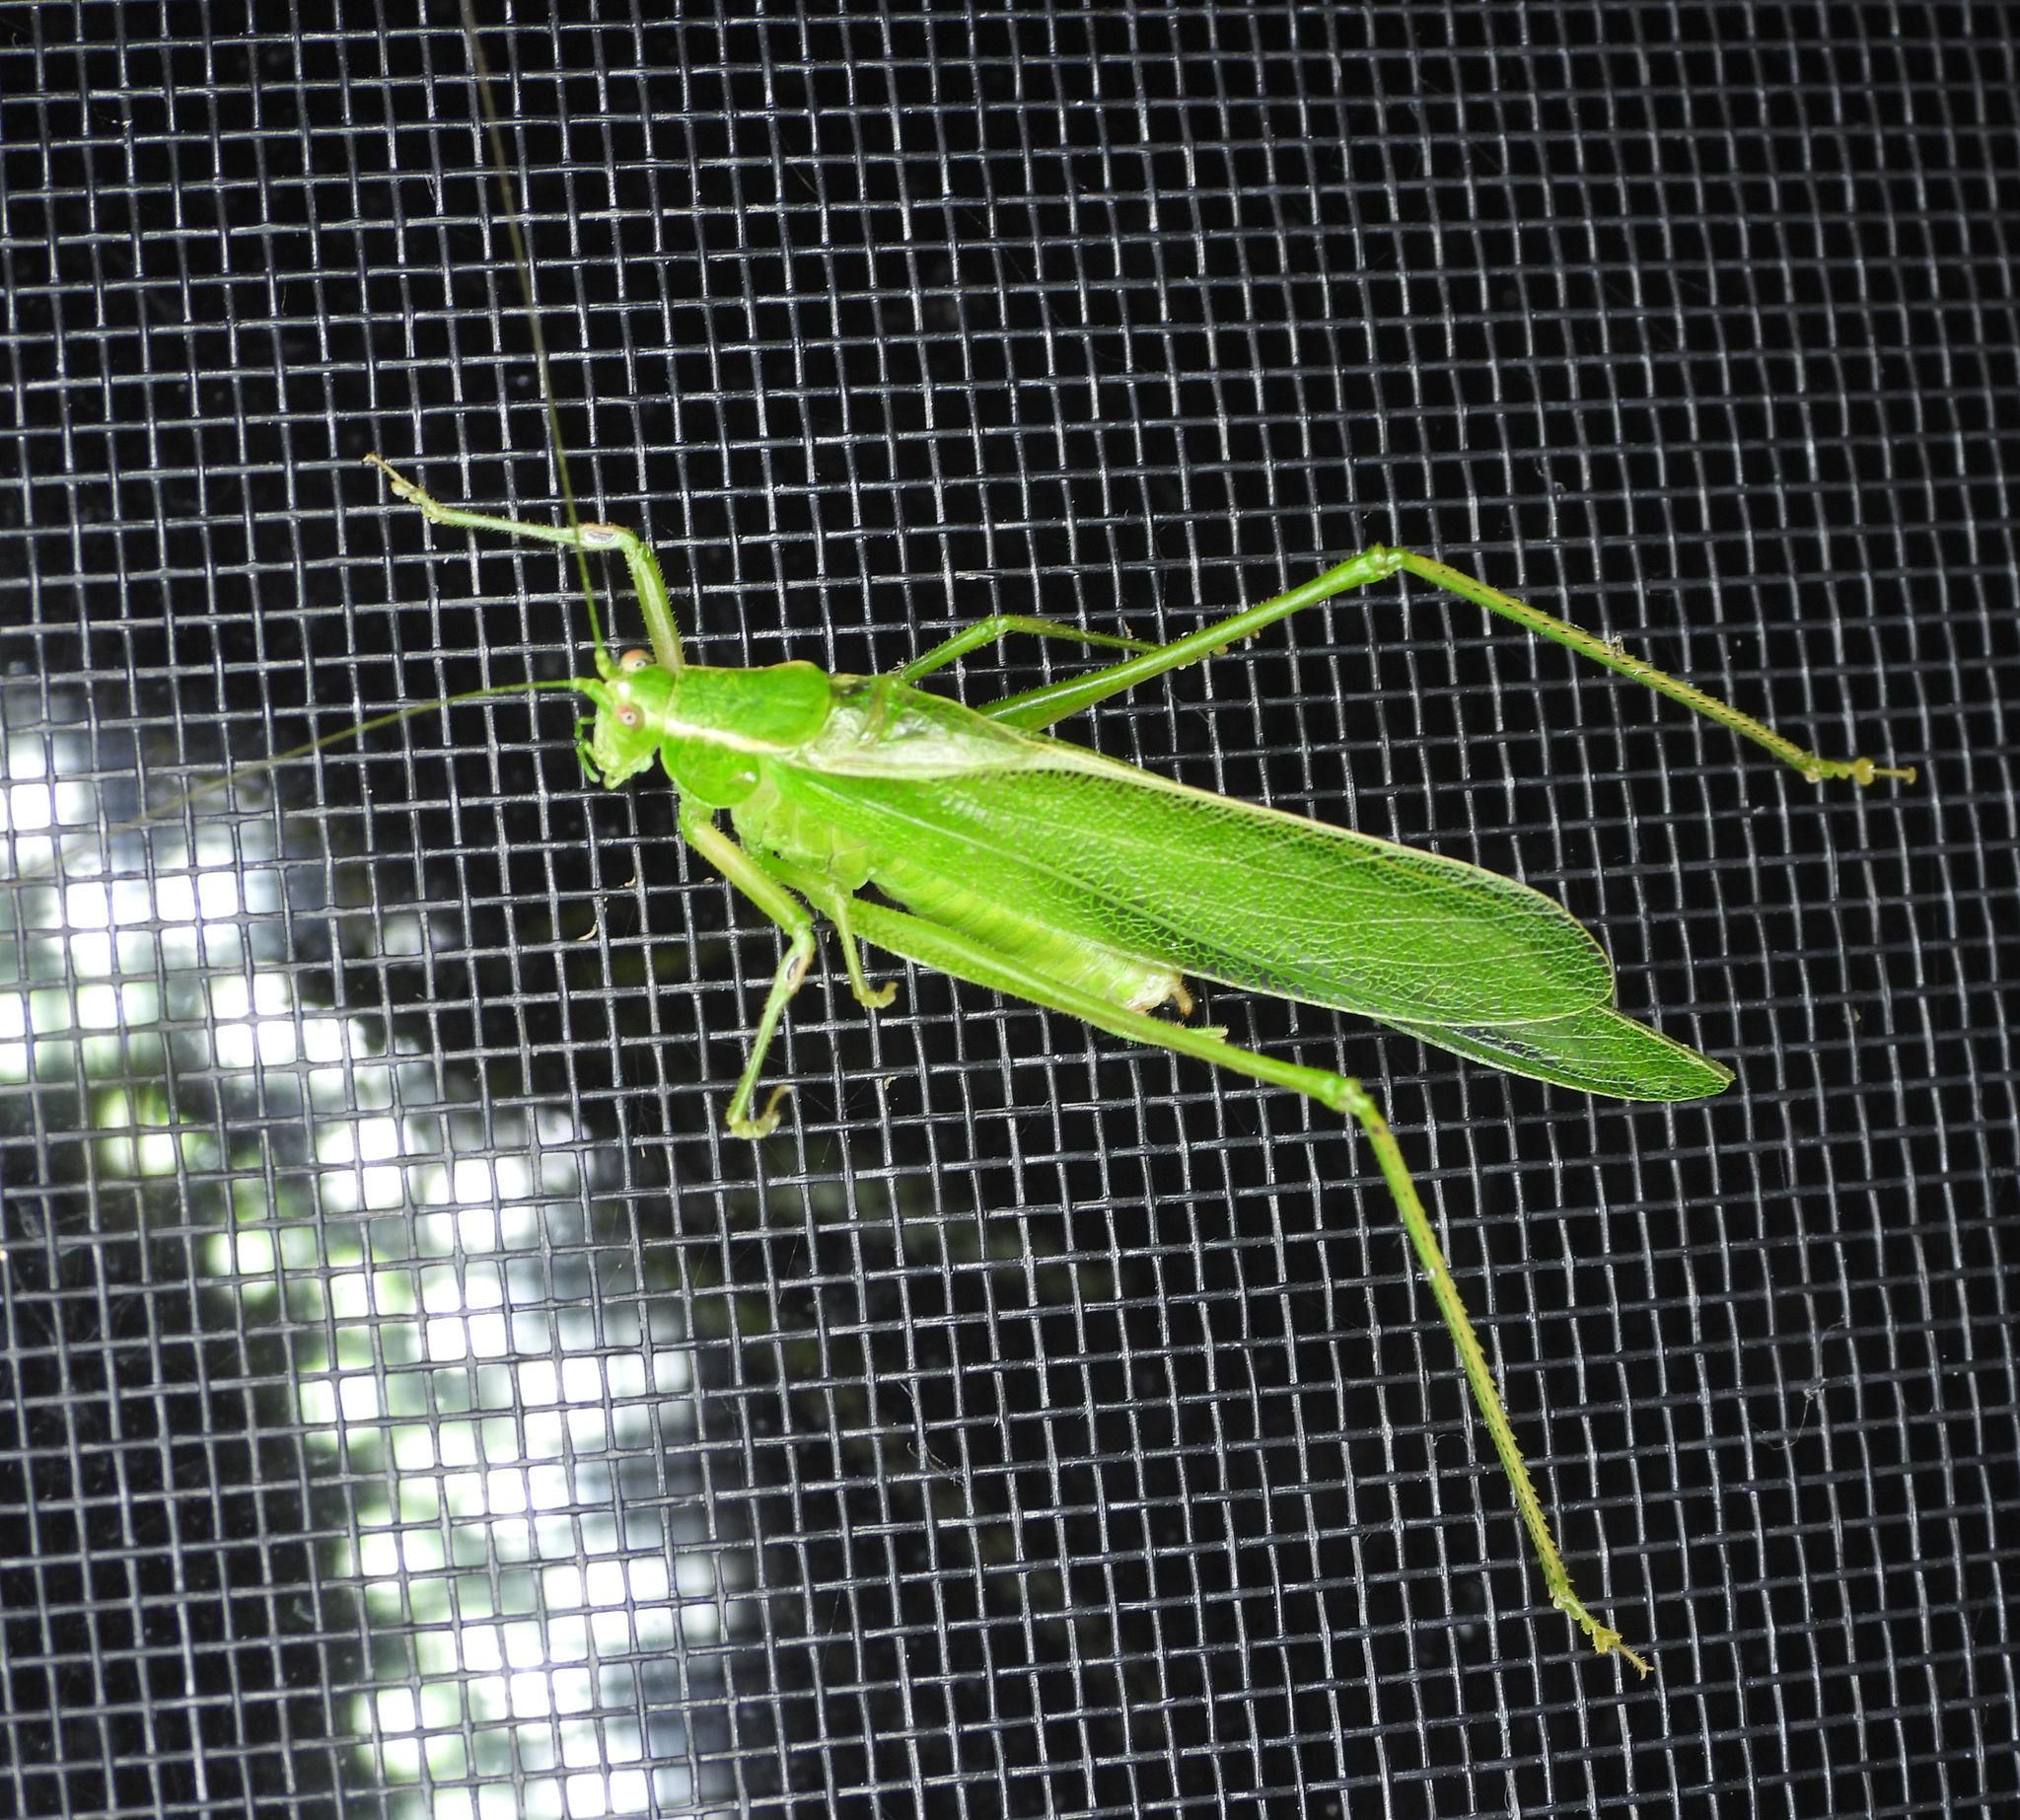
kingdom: Animalia
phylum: Arthropoda
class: Insecta
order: Orthoptera
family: Tettigoniidae
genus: Scudderia
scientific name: Scudderia septentrionalis
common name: Northern bush-katydid
